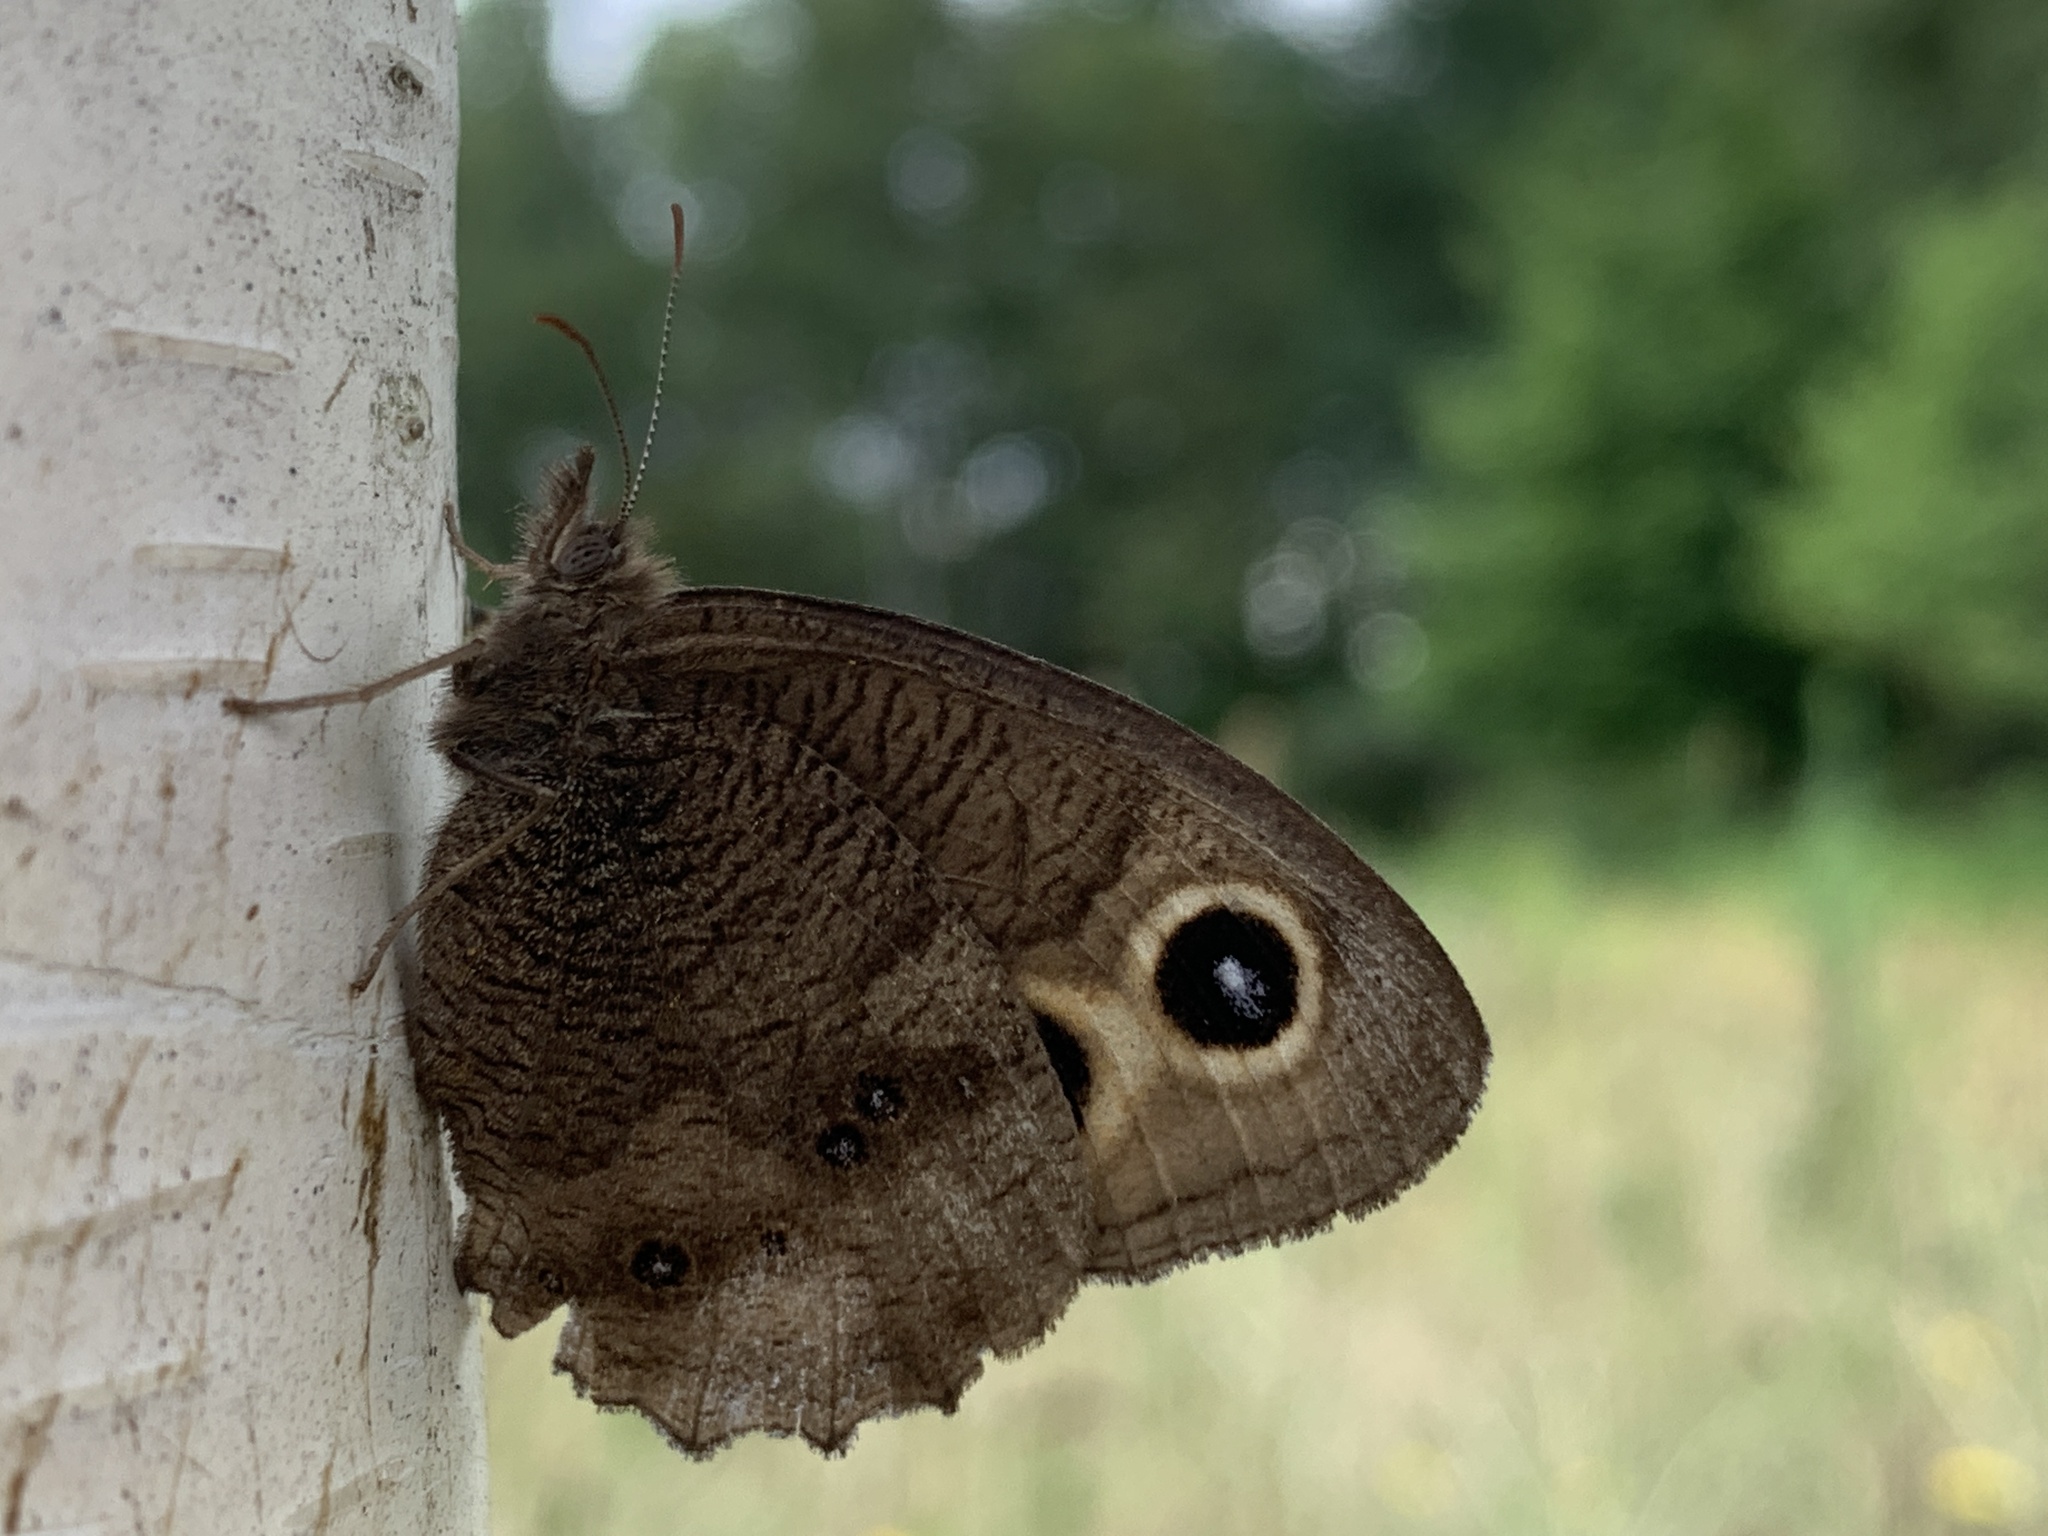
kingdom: Animalia
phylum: Arthropoda
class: Insecta
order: Lepidoptera
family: Nymphalidae
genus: Cercyonis
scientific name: Cercyonis pegala
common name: Common wood-nymph
